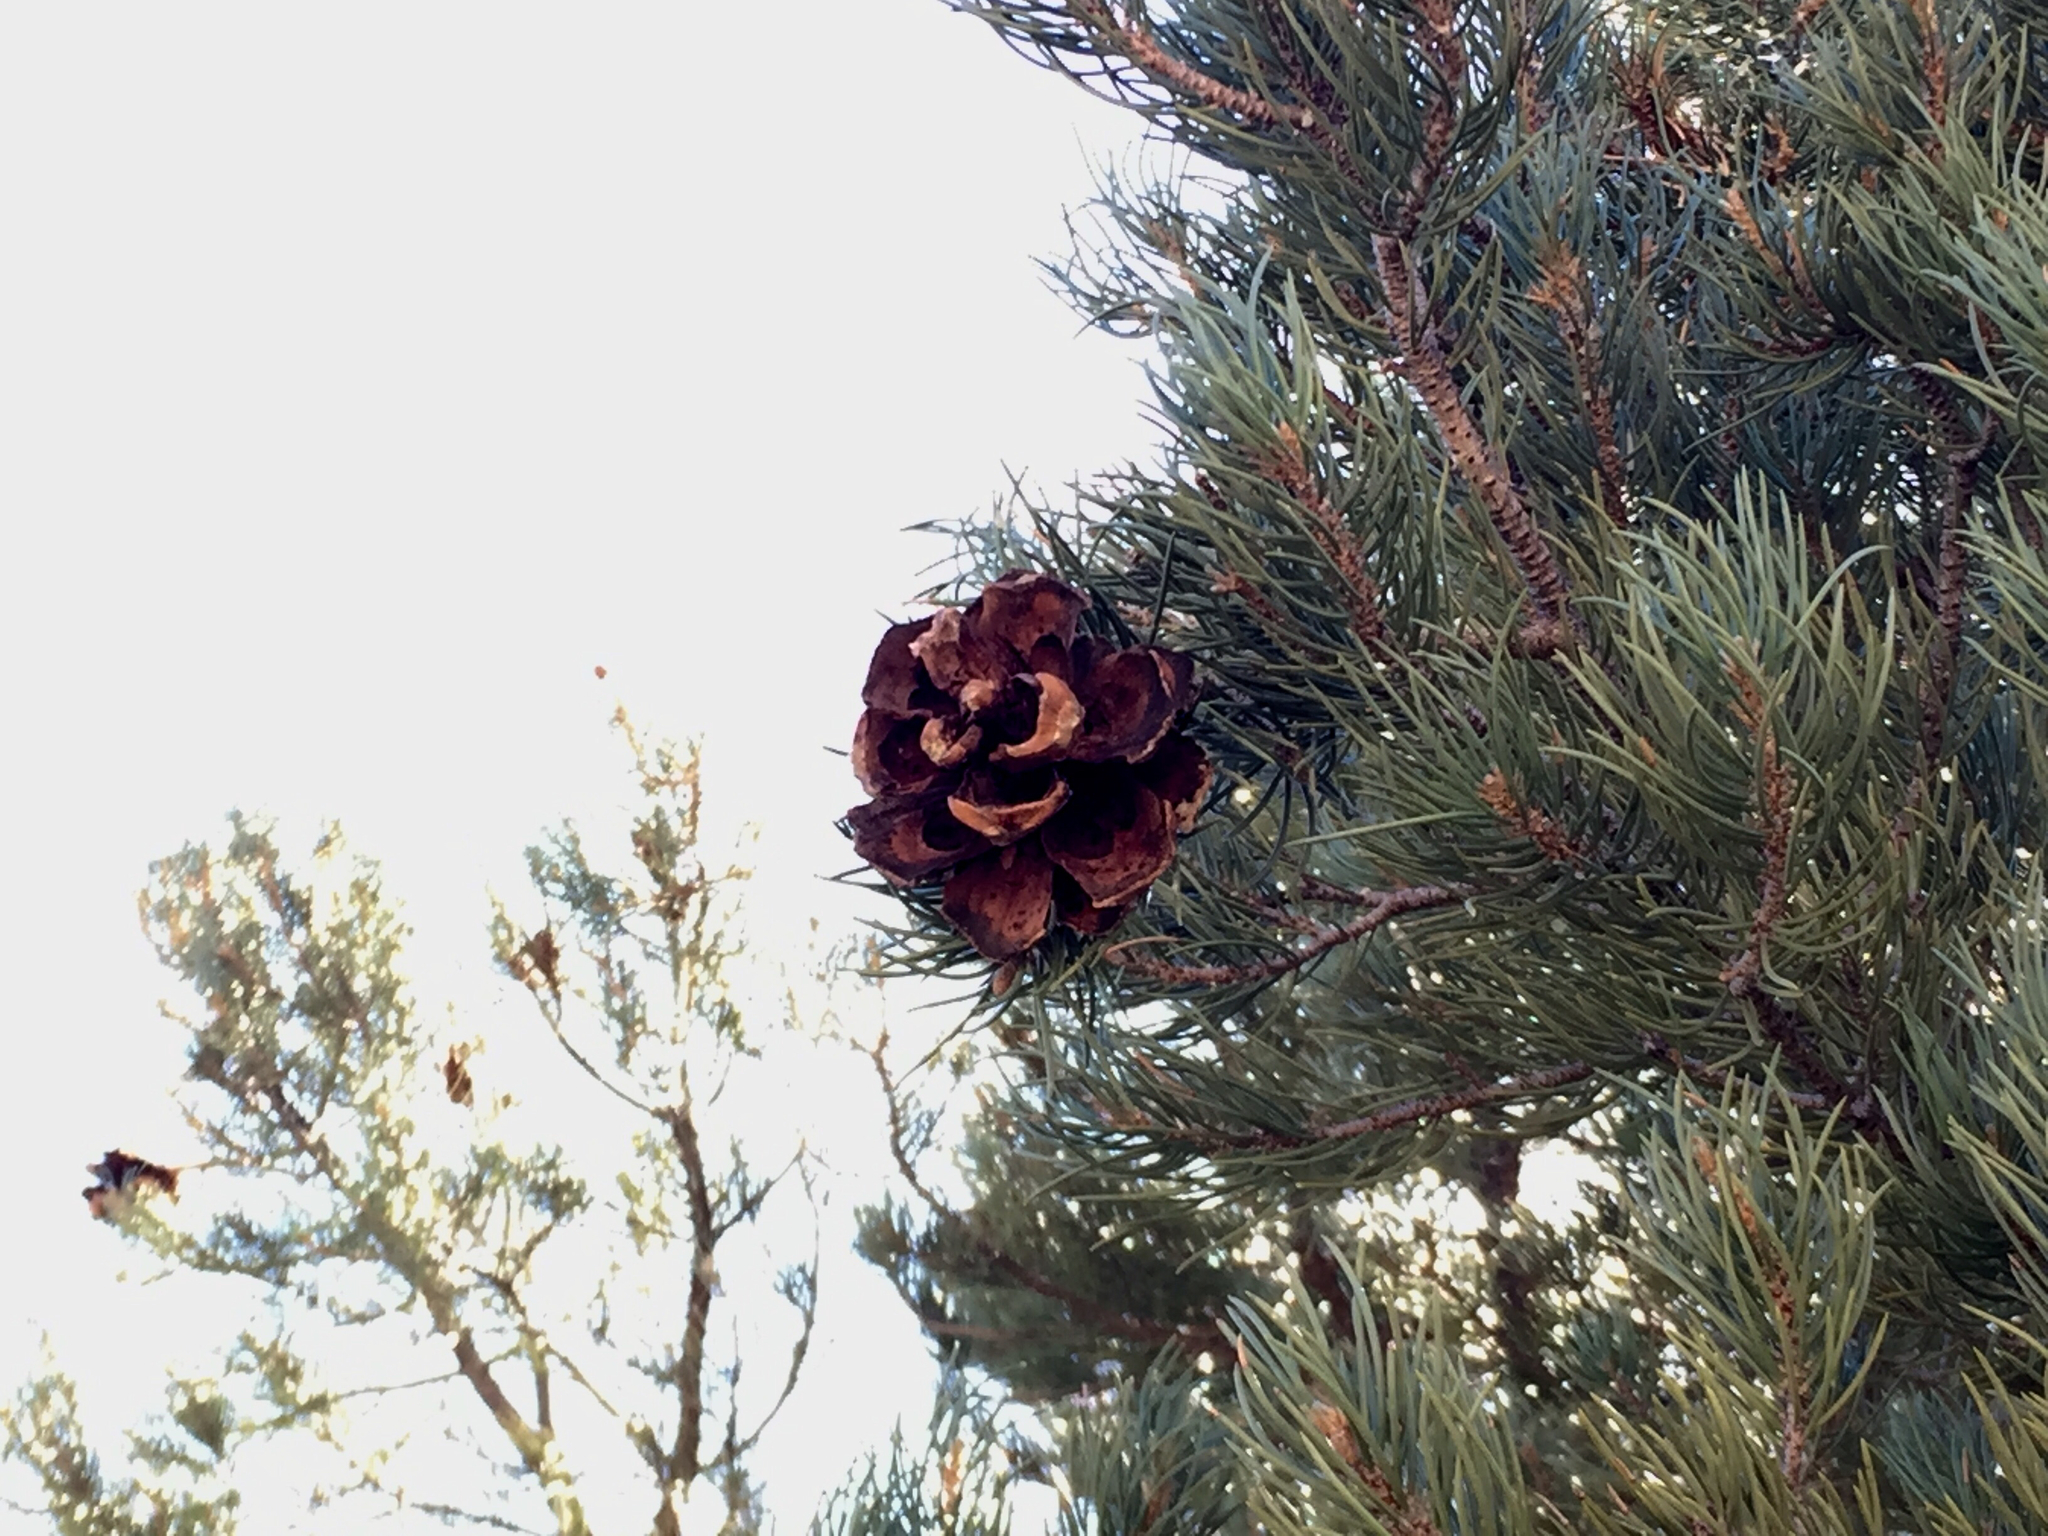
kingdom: Plantae
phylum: Tracheophyta
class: Pinopsida
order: Pinales
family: Pinaceae
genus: Pinus
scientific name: Pinus monophylla
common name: One-leaved nut pine
